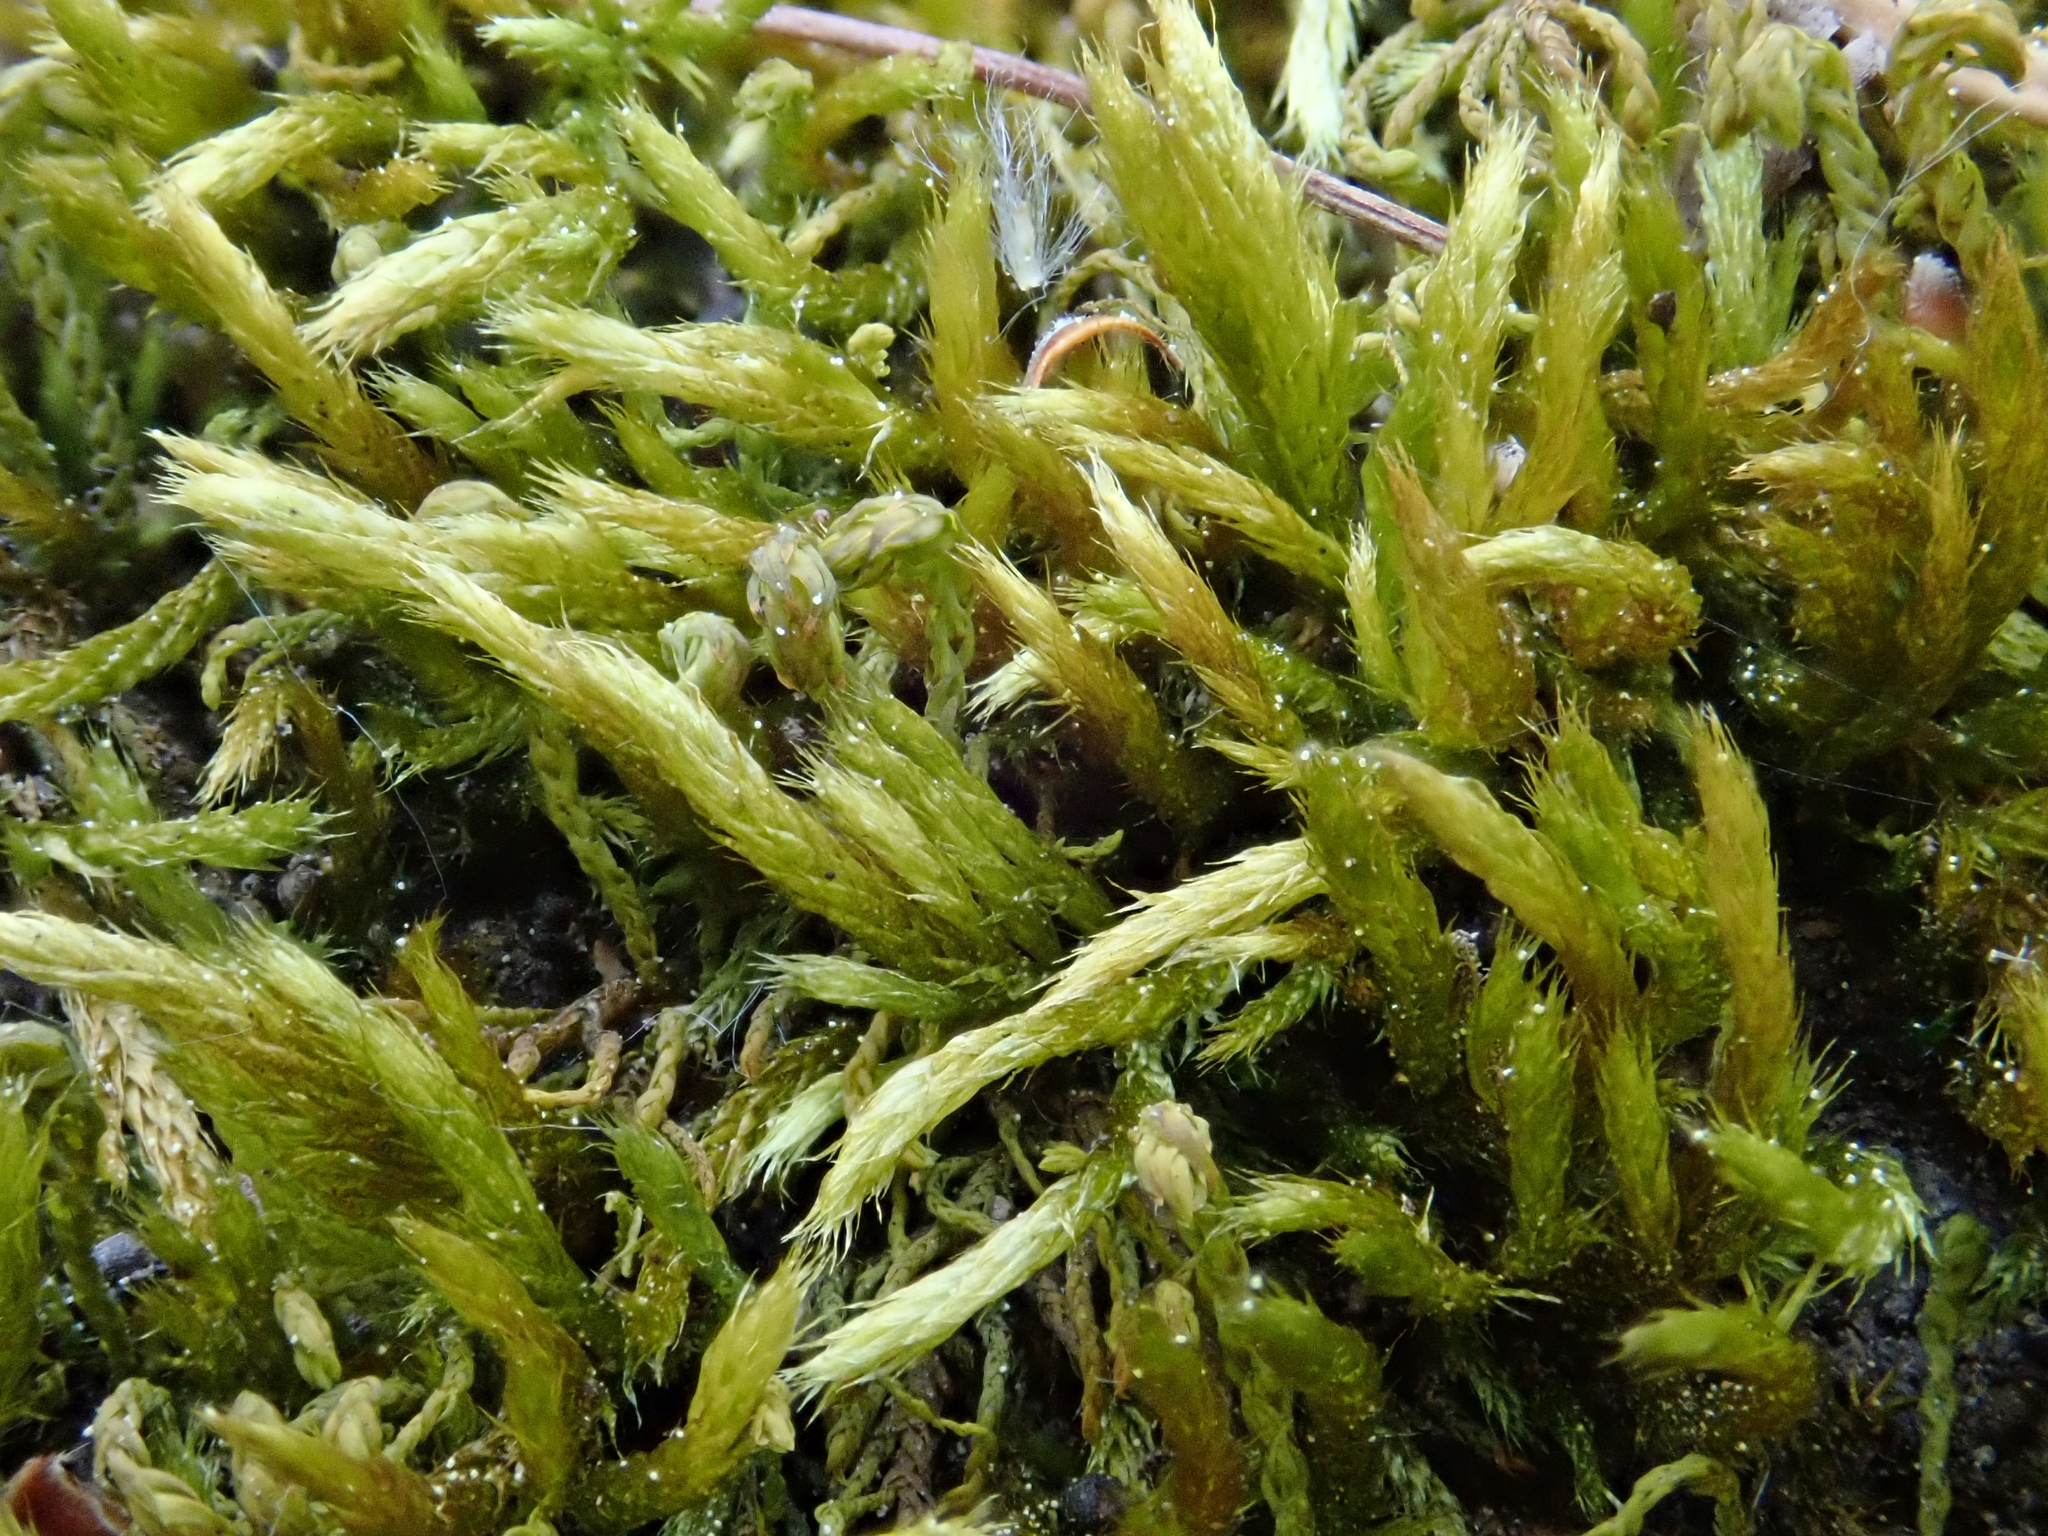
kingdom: Plantae
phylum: Bryophyta
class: Bryopsida
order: Hypnales
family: Brachytheciaceae
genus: Cirriphyllum
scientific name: Cirriphyllum crassinervium
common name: Beech feather-moss
